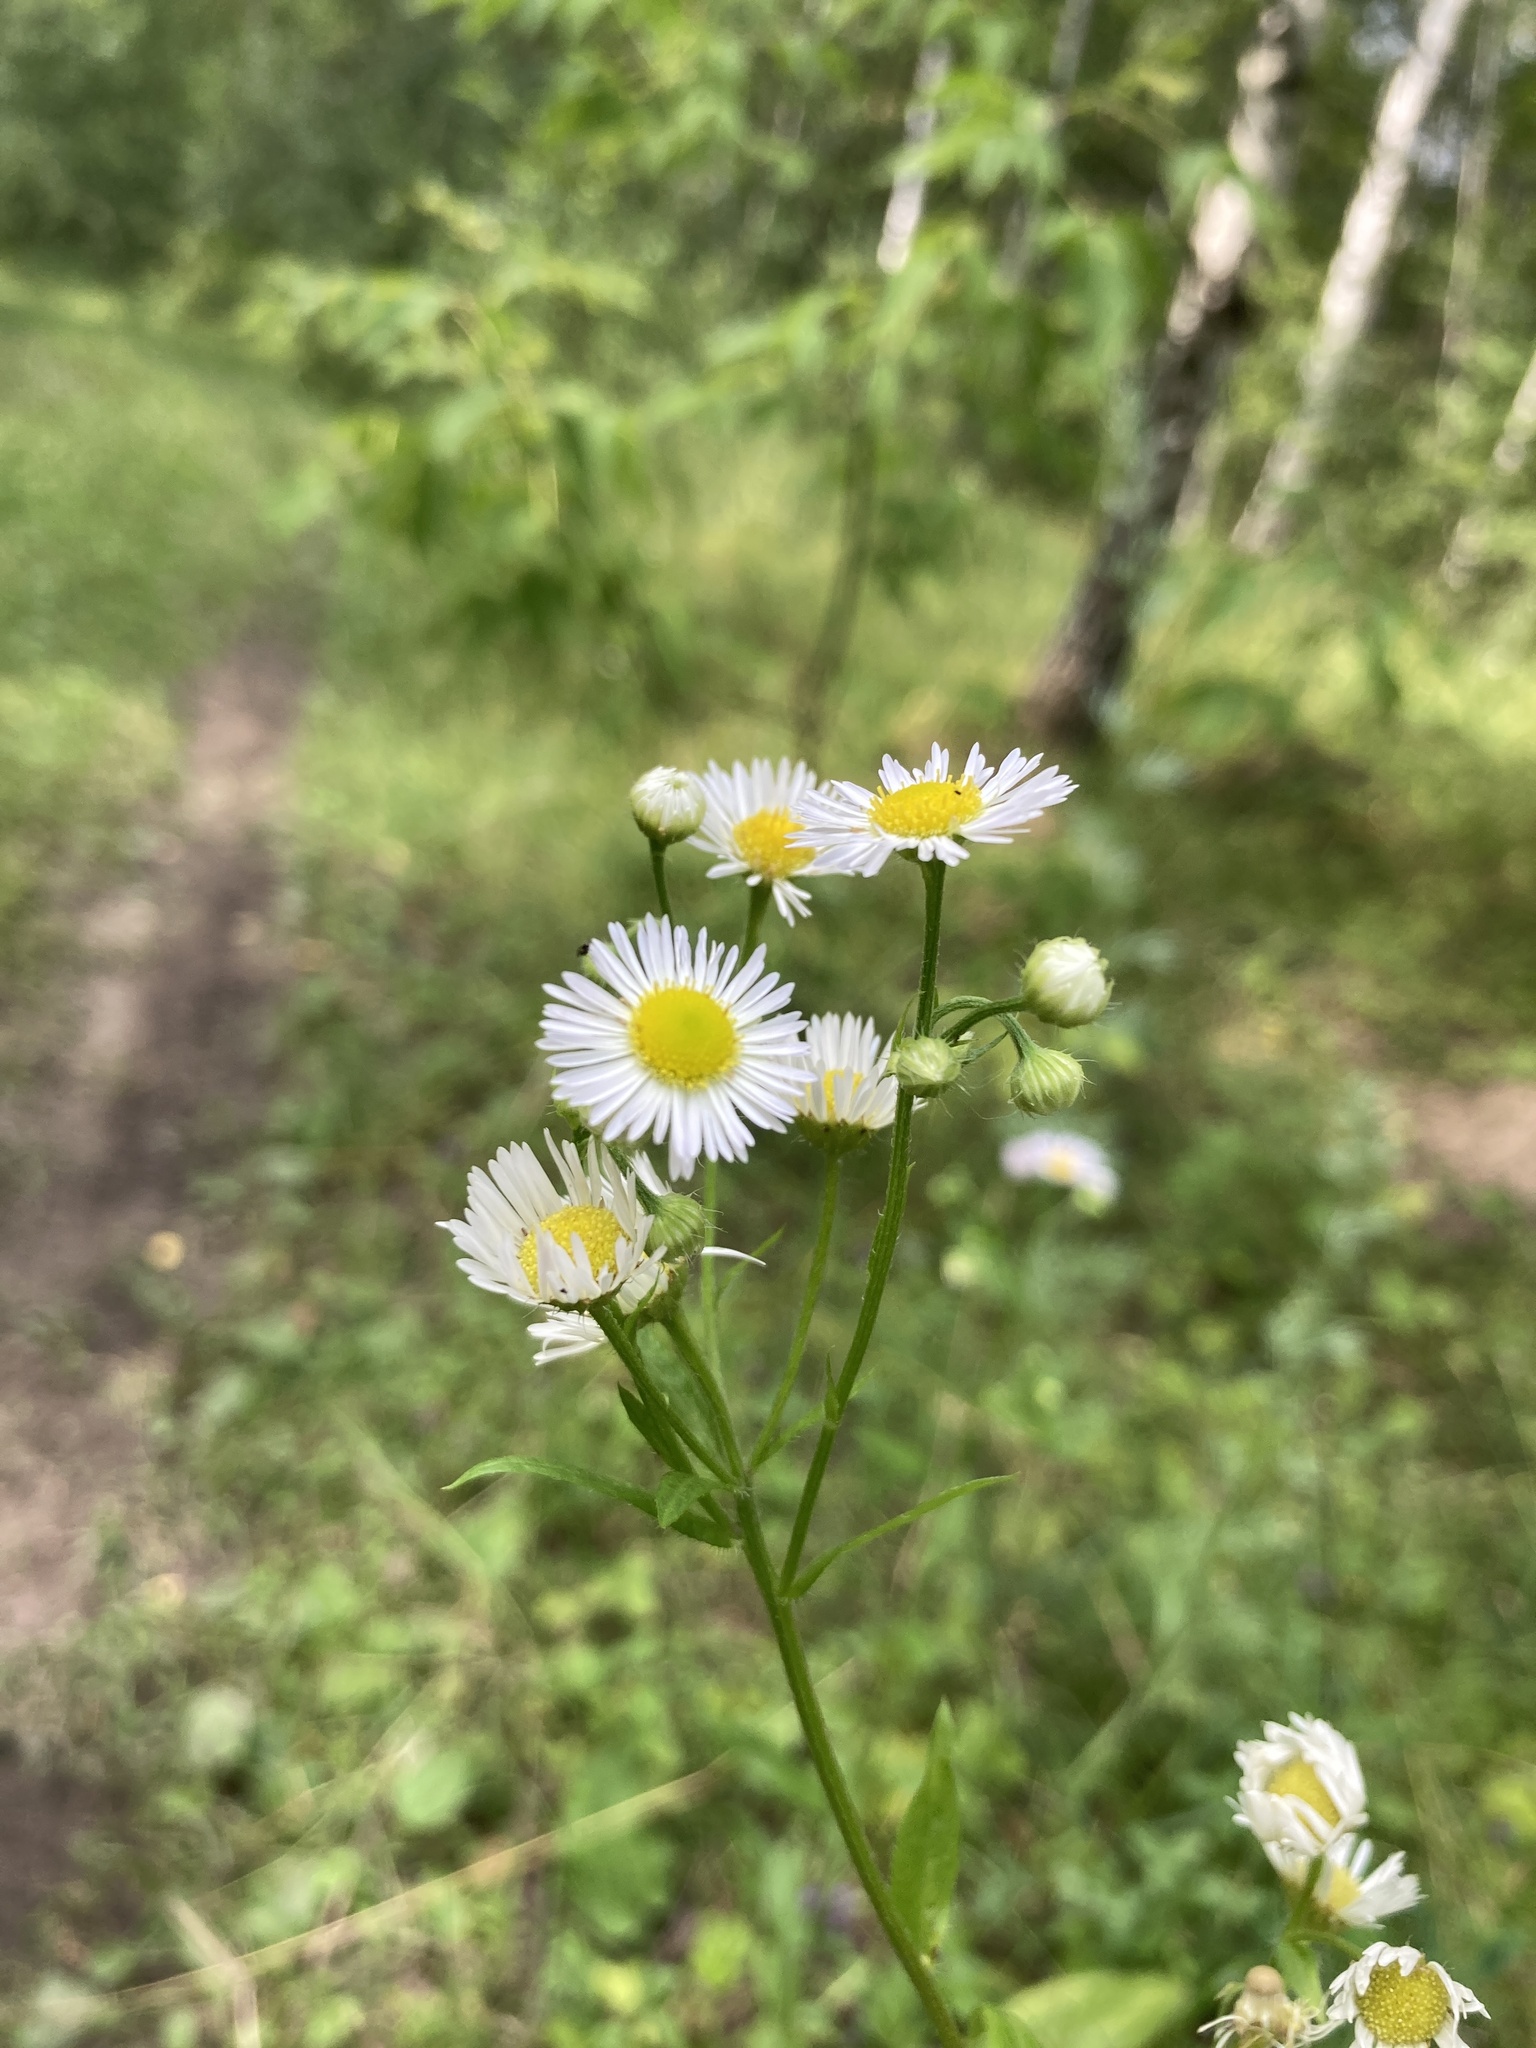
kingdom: Plantae
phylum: Tracheophyta
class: Magnoliopsida
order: Asterales
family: Asteraceae
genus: Erigeron
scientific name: Erigeron annuus
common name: Tall fleabane
